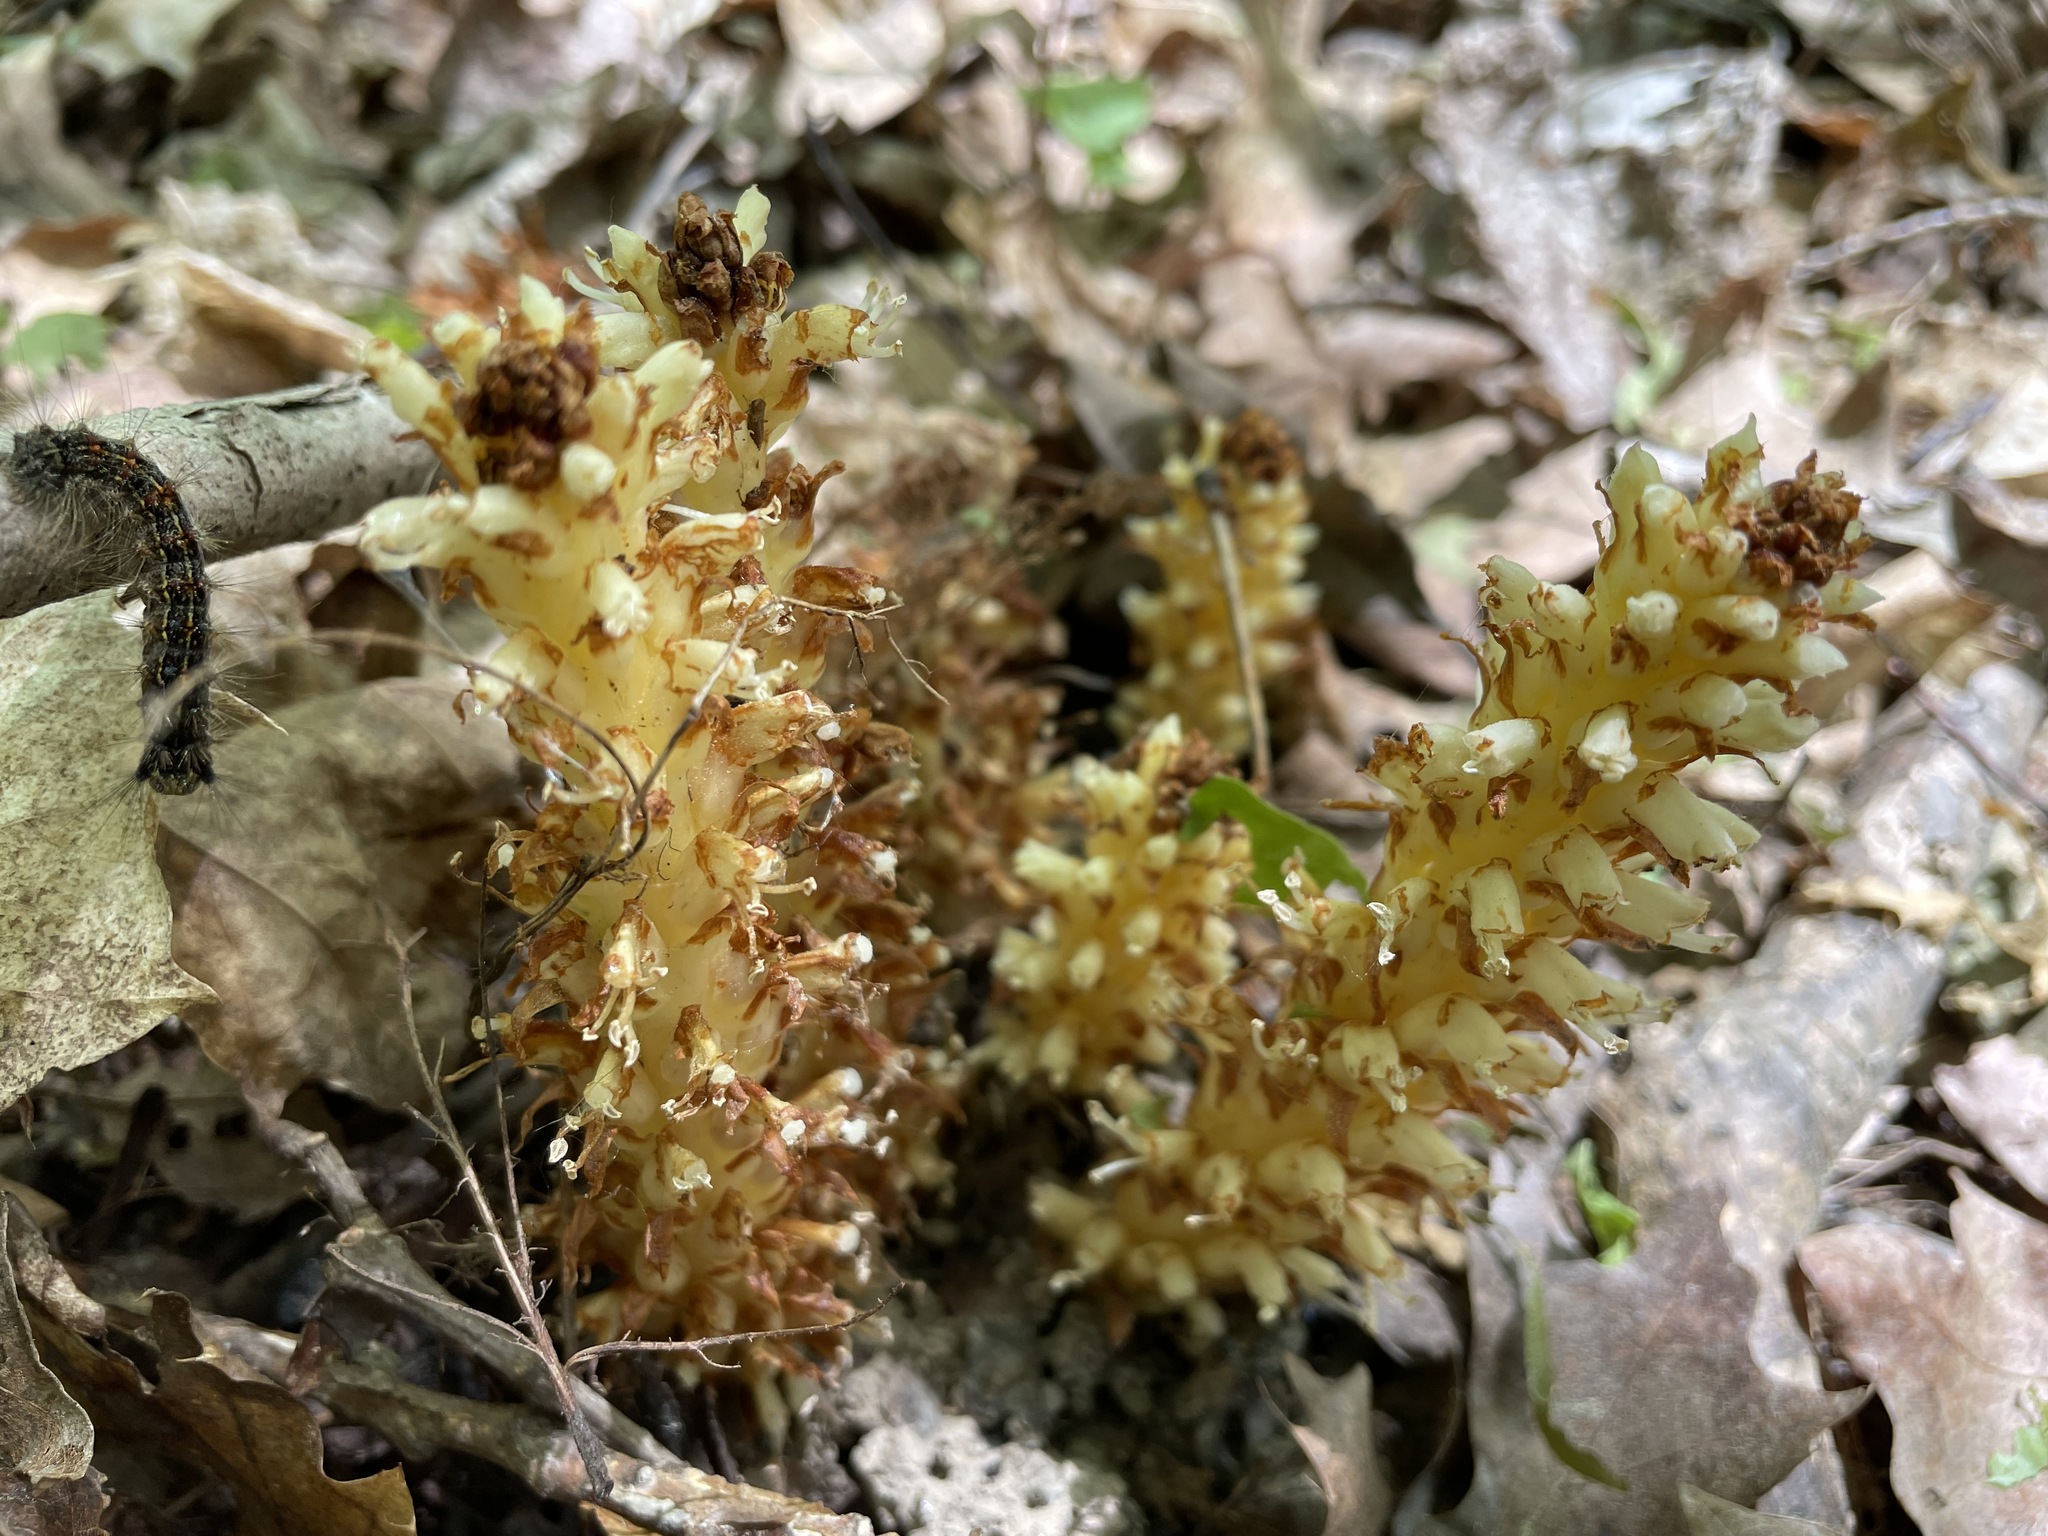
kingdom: Plantae
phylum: Tracheophyta
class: Magnoliopsida
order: Lamiales
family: Orobanchaceae
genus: Conopholis
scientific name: Conopholis americana
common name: American cancer-root
